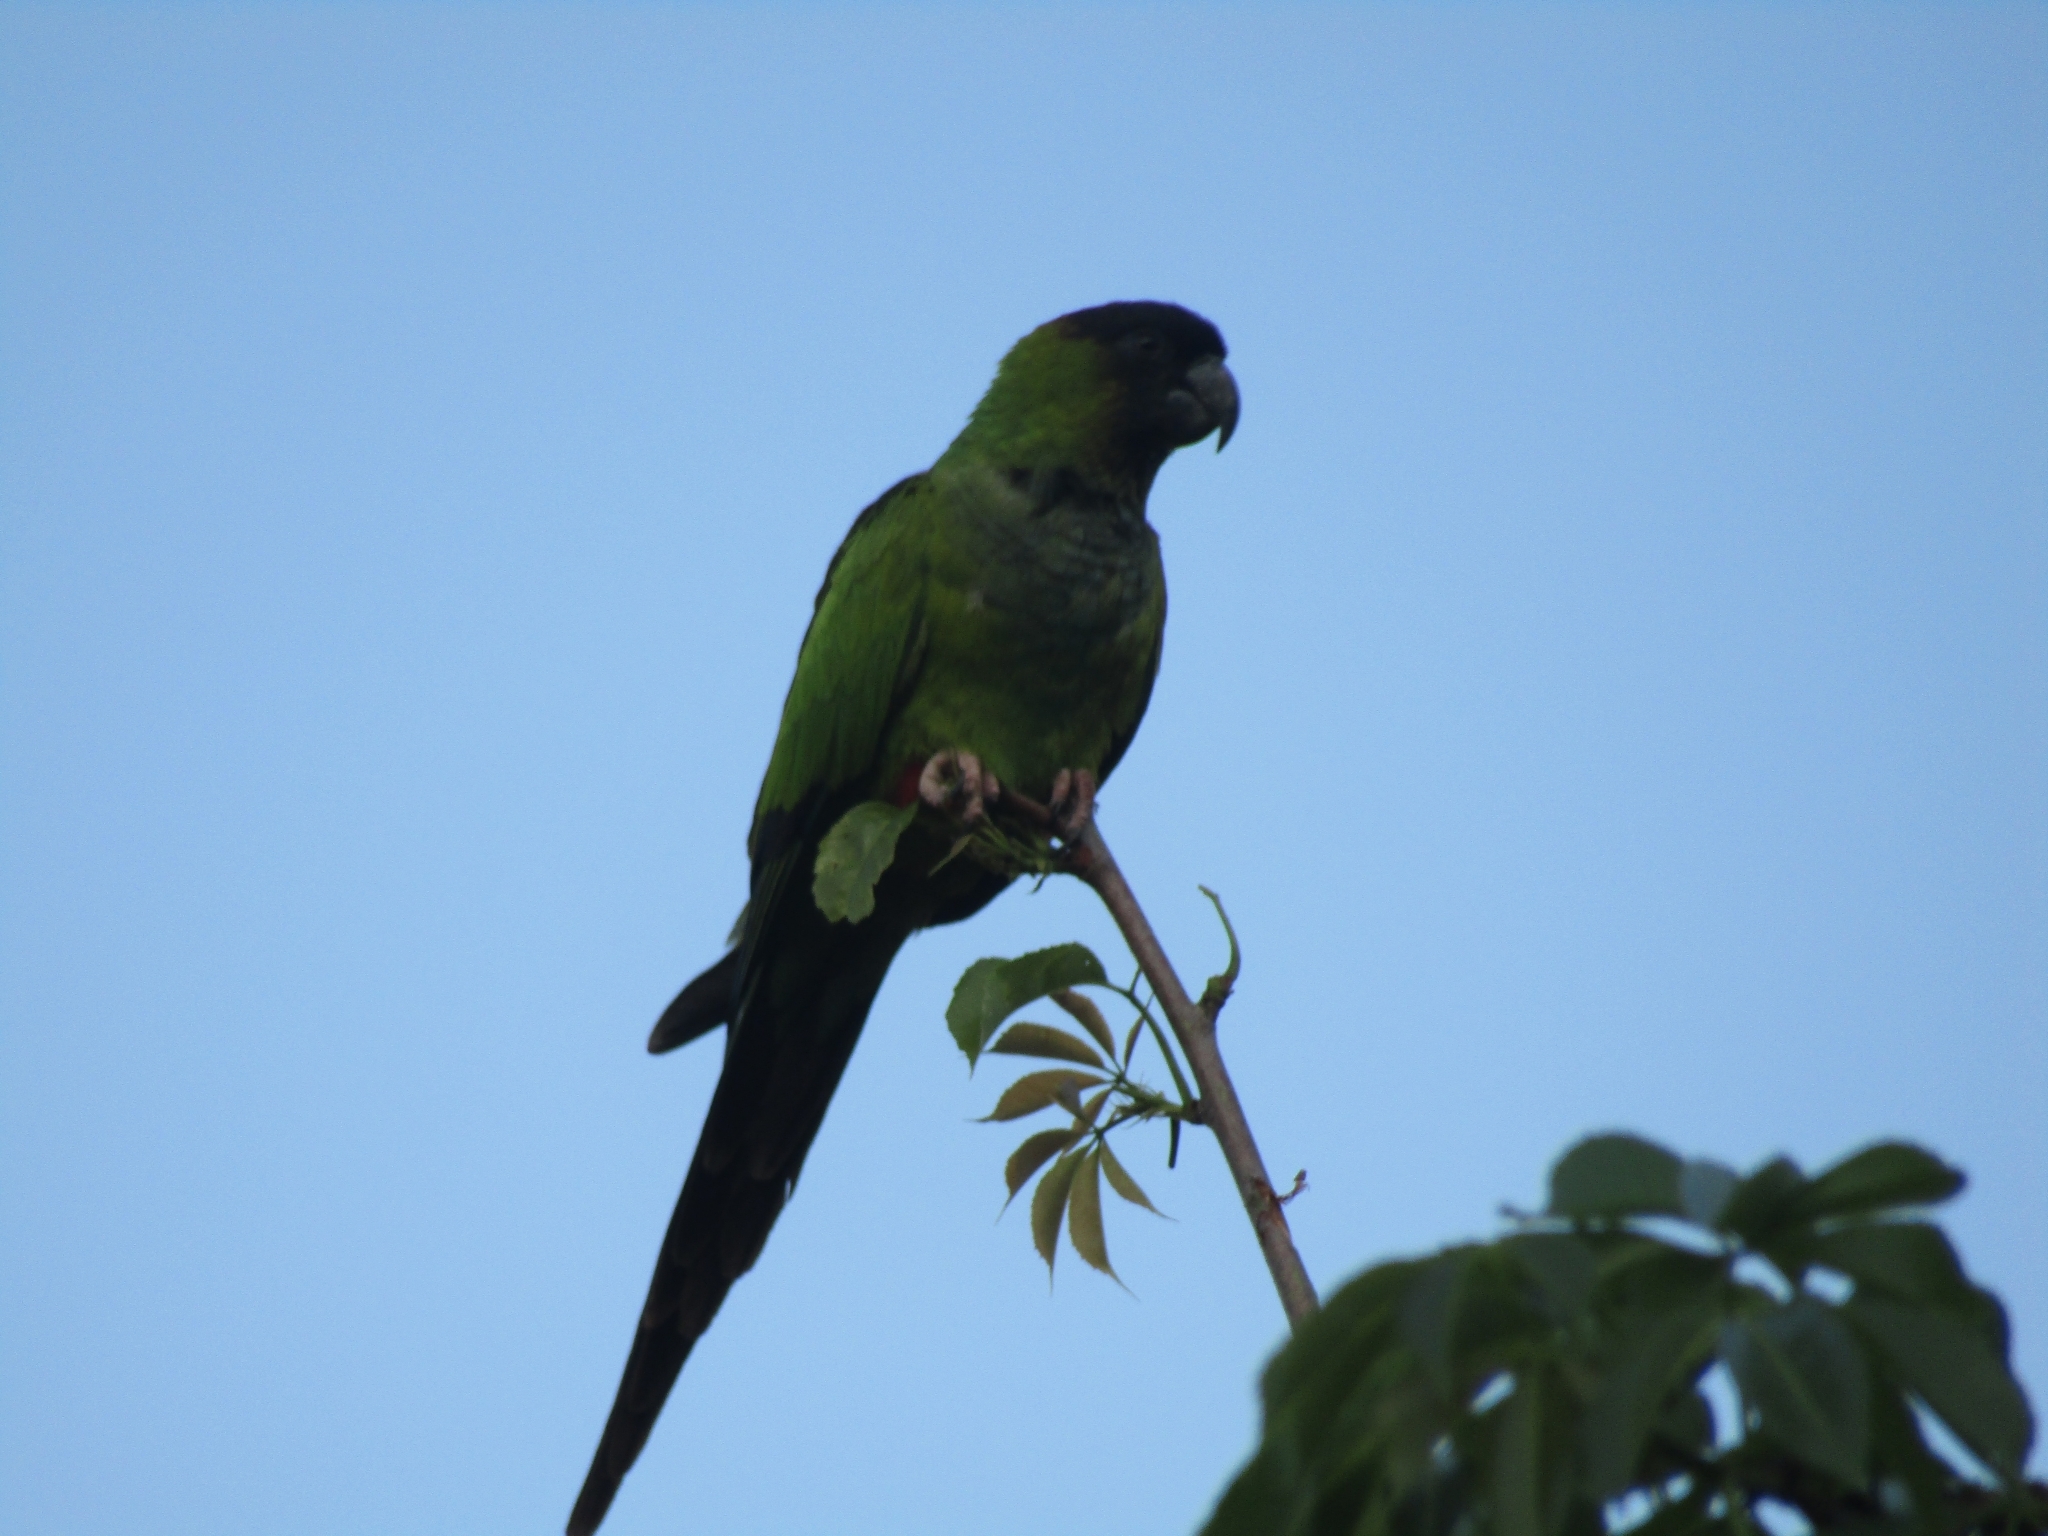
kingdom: Animalia
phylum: Chordata
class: Aves
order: Psittaciformes
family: Psittacidae
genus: Nandayus
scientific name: Nandayus nenday
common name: Nanday parakeet
